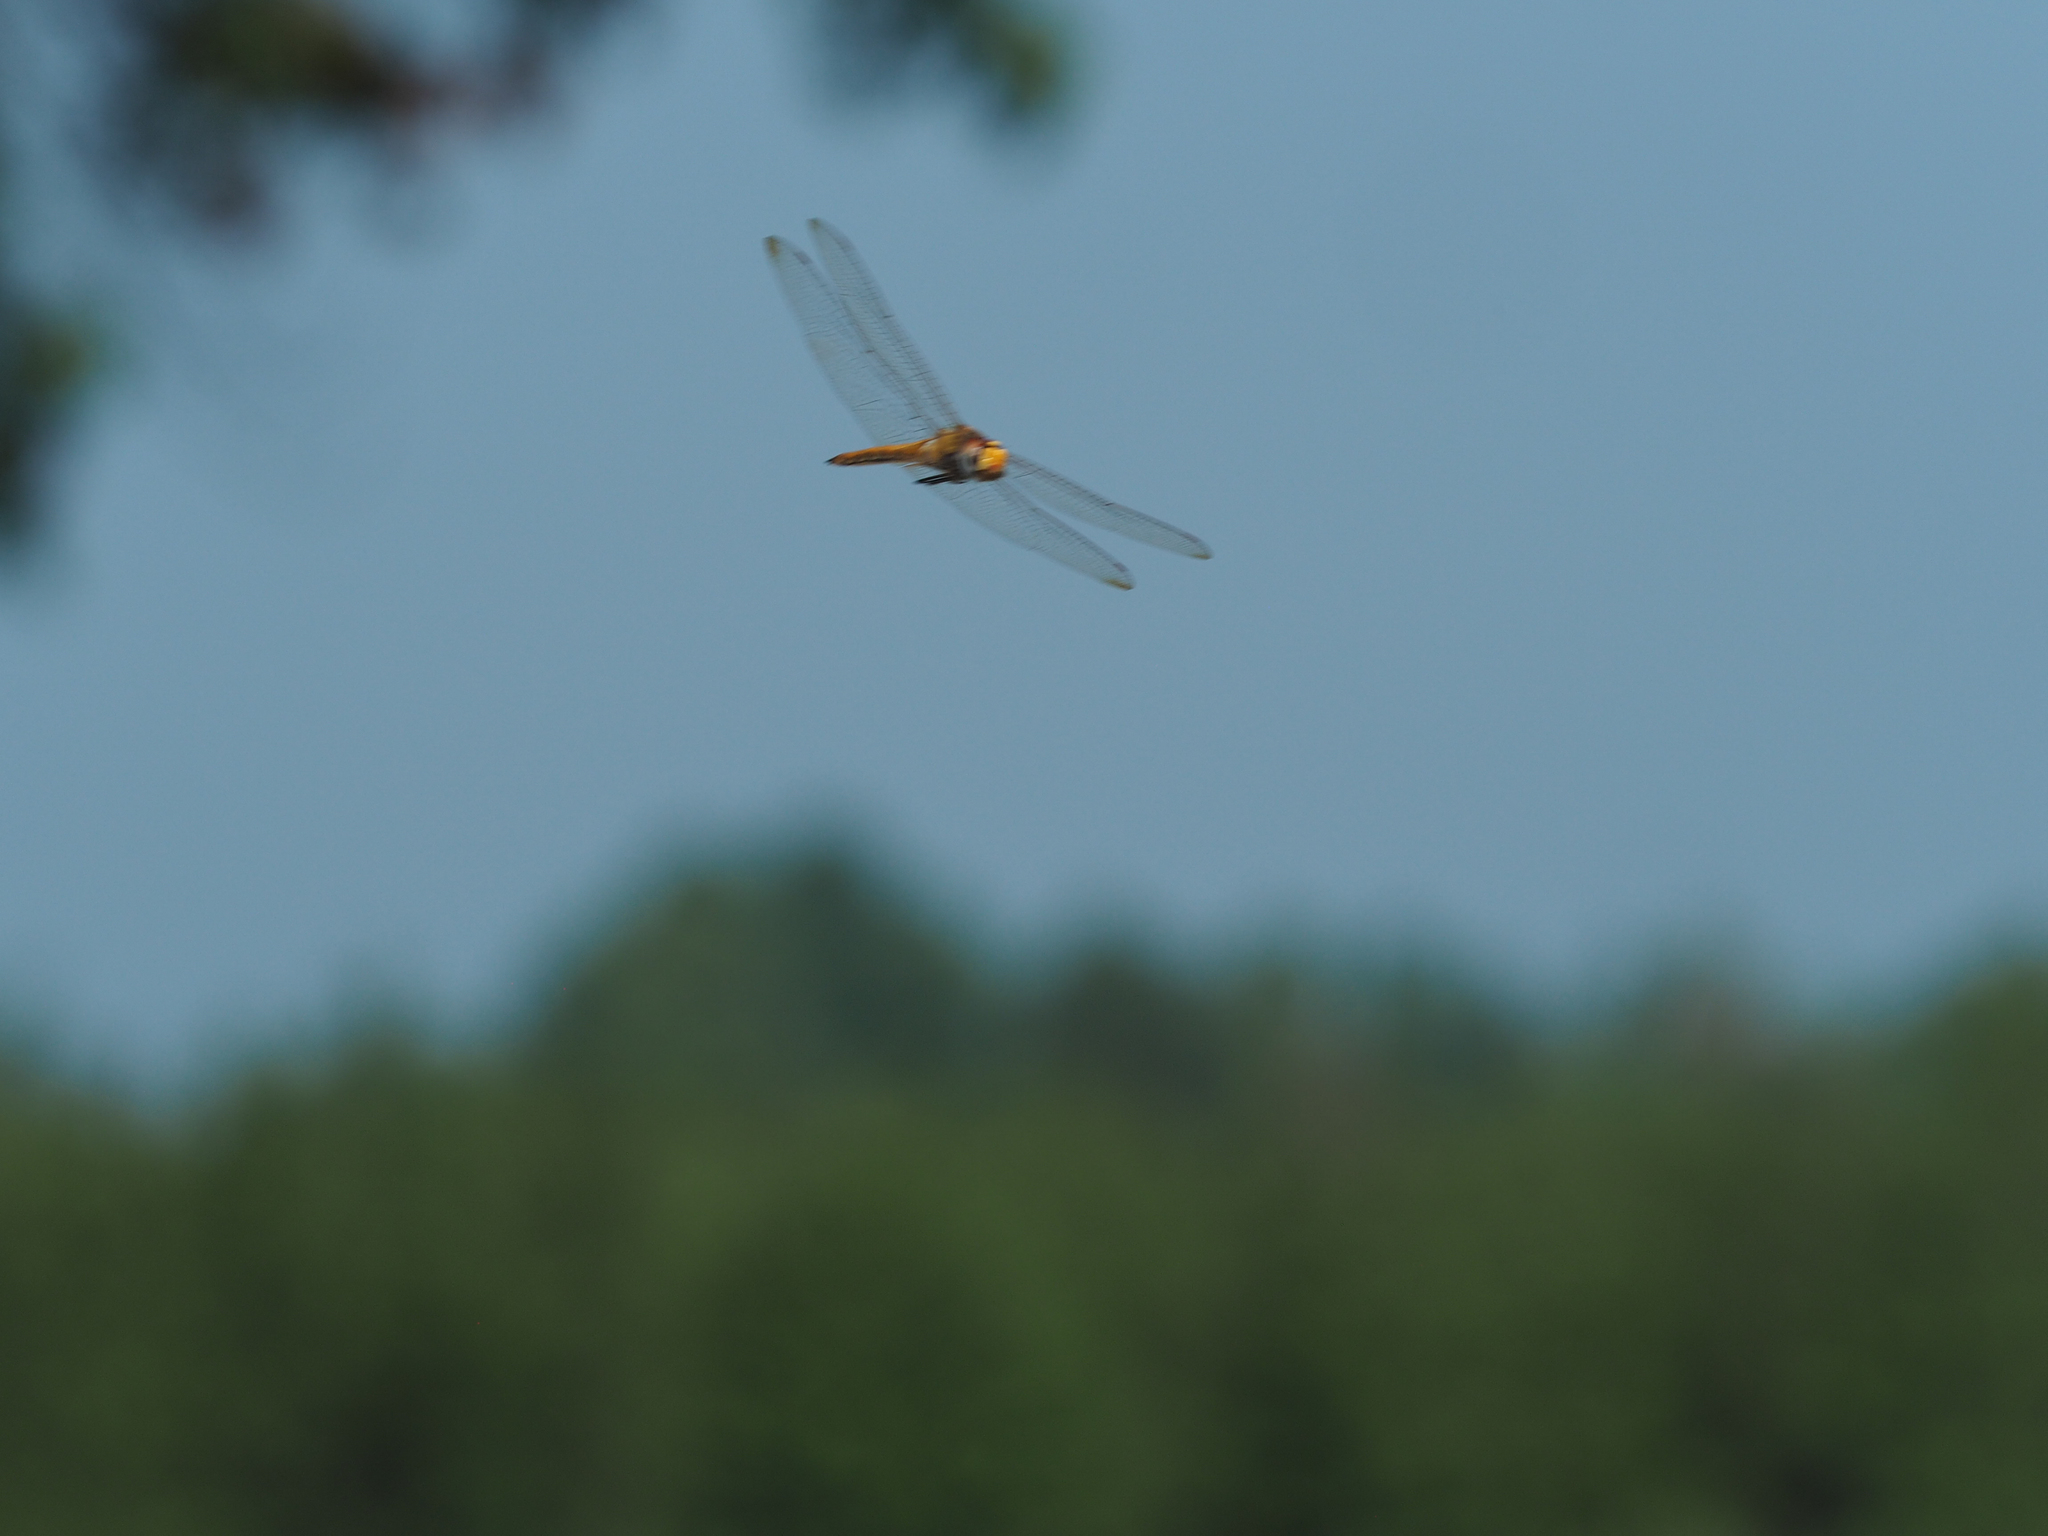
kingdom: Animalia
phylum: Arthropoda
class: Insecta
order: Odonata
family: Libellulidae
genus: Pantala
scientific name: Pantala flavescens
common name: Wandering glider
